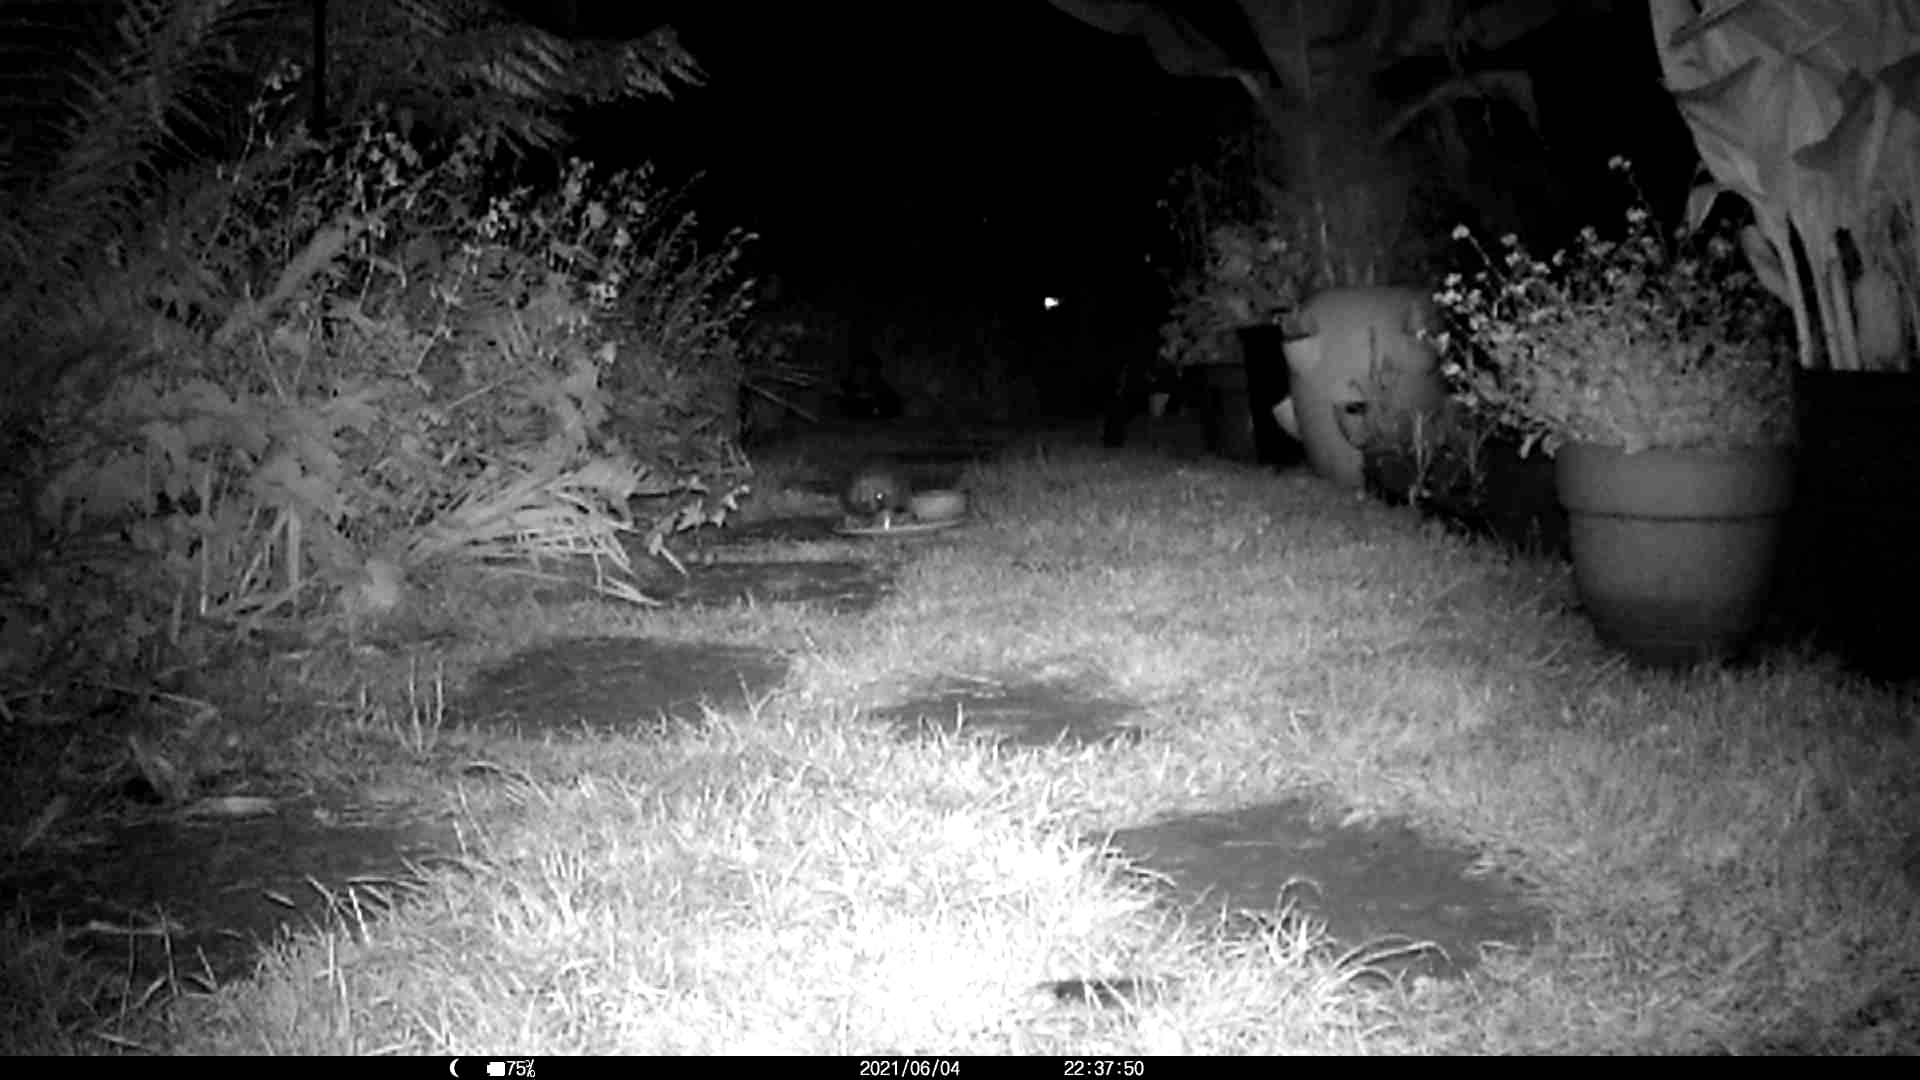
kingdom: Animalia
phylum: Chordata
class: Mammalia
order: Erinaceomorpha
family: Erinaceidae
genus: Erinaceus
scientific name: Erinaceus europaeus
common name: West european hedgehog
